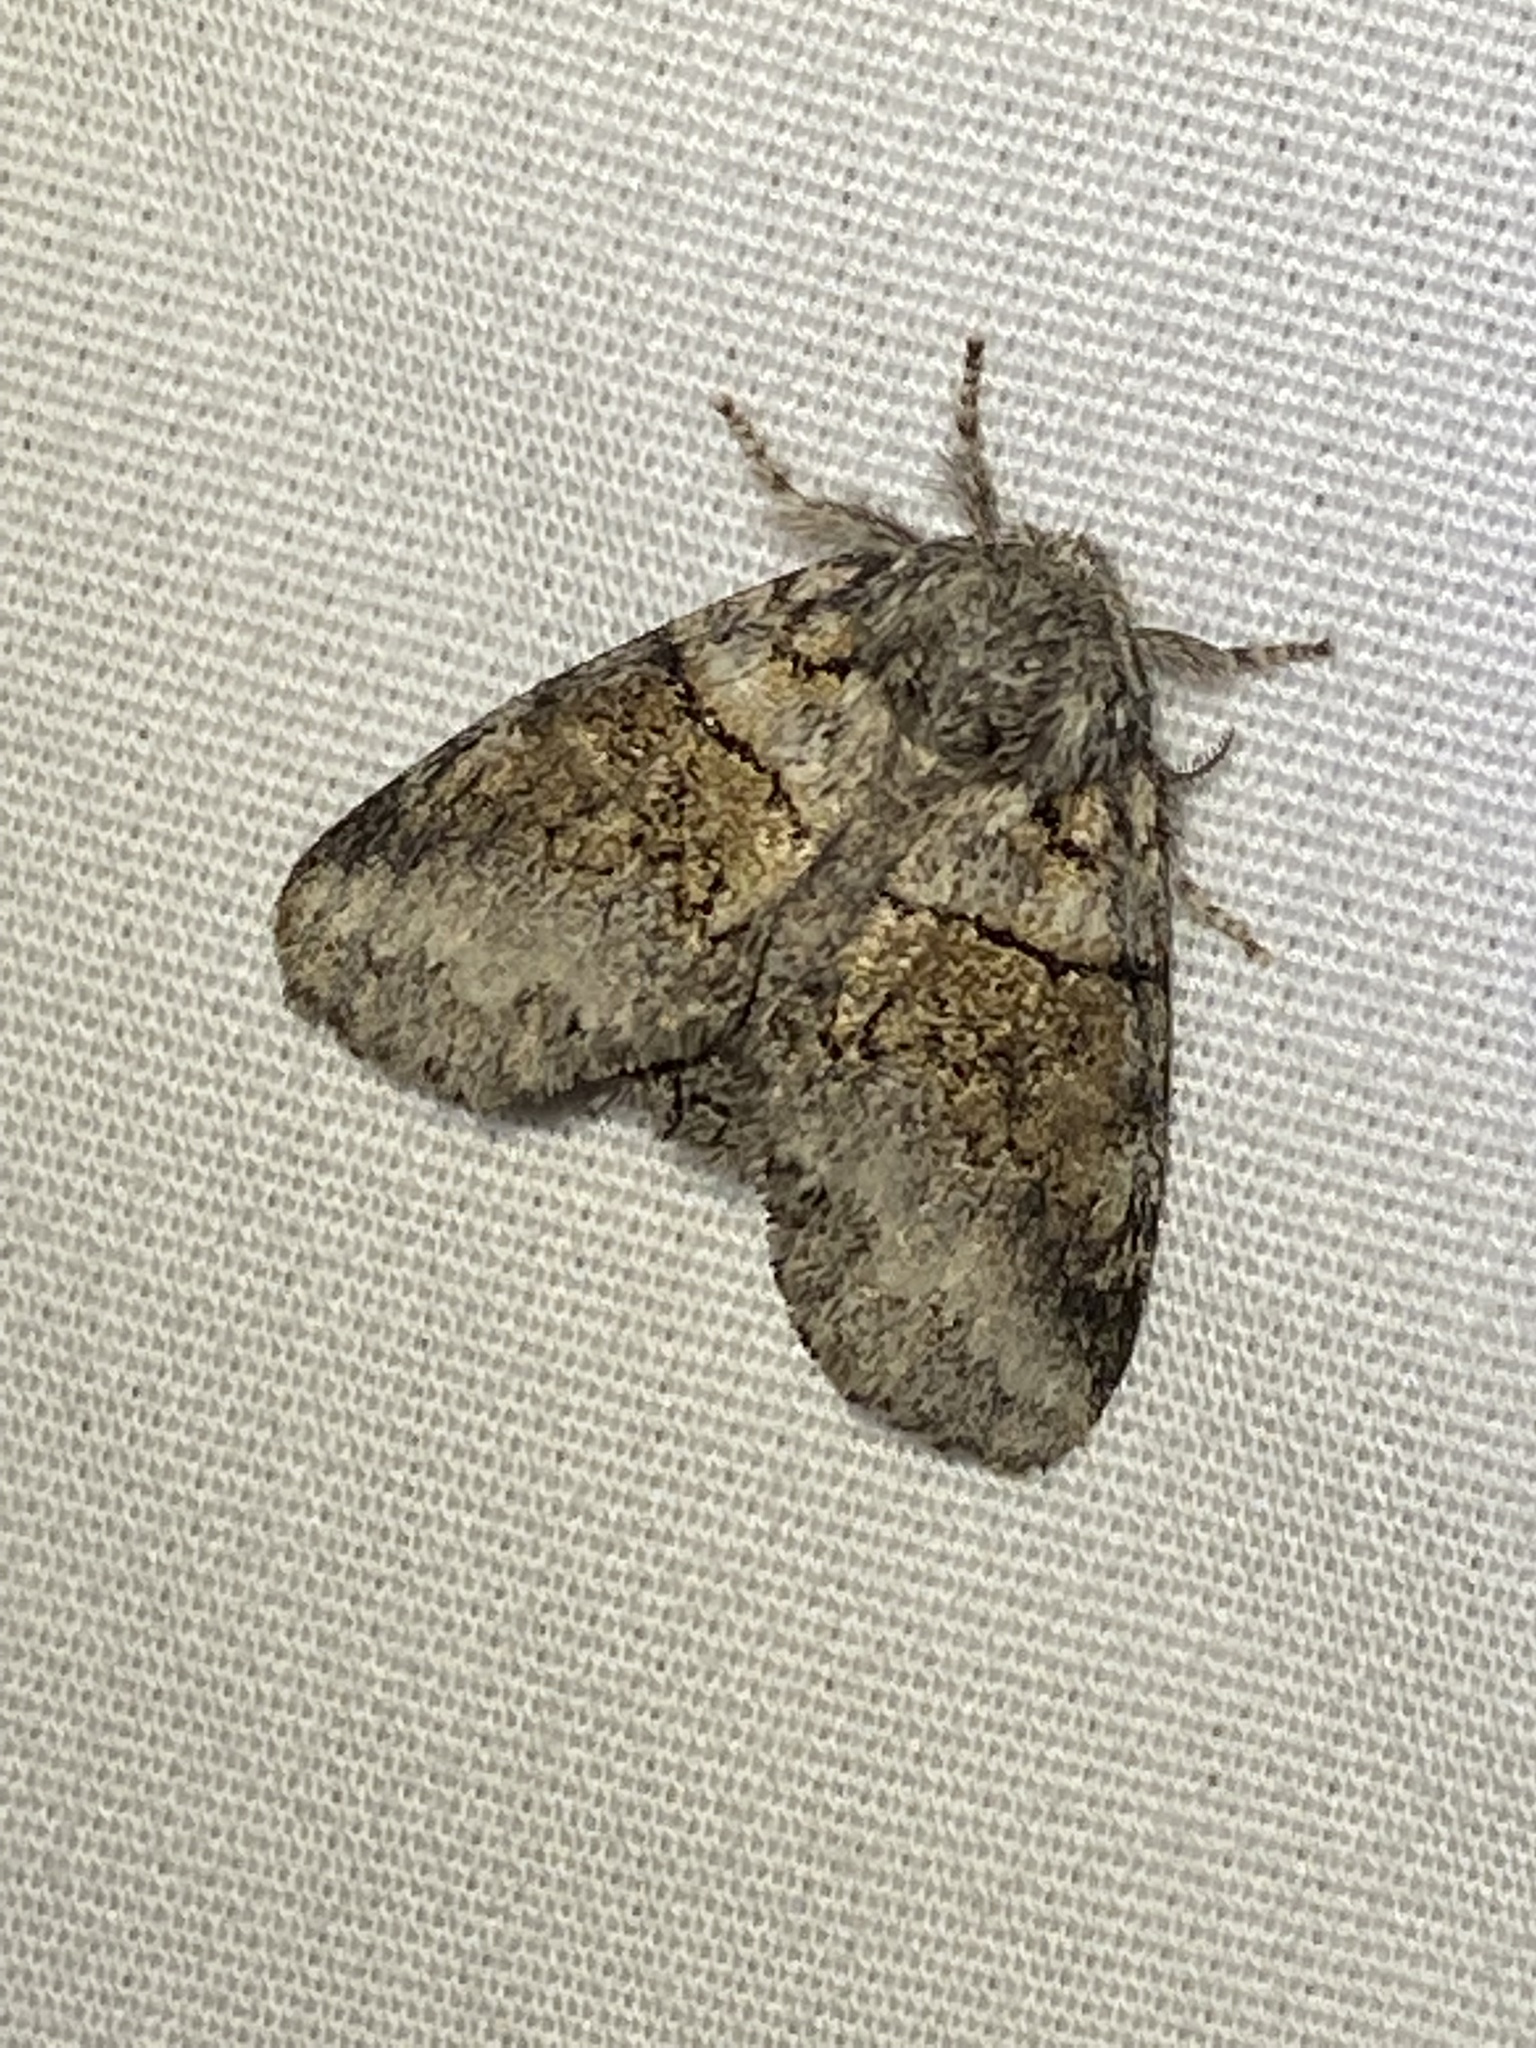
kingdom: Animalia
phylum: Arthropoda
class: Insecta
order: Lepidoptera
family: Notodontidae
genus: Gluphisia
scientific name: Gluphisia septentrionis
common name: Common gluphisia
